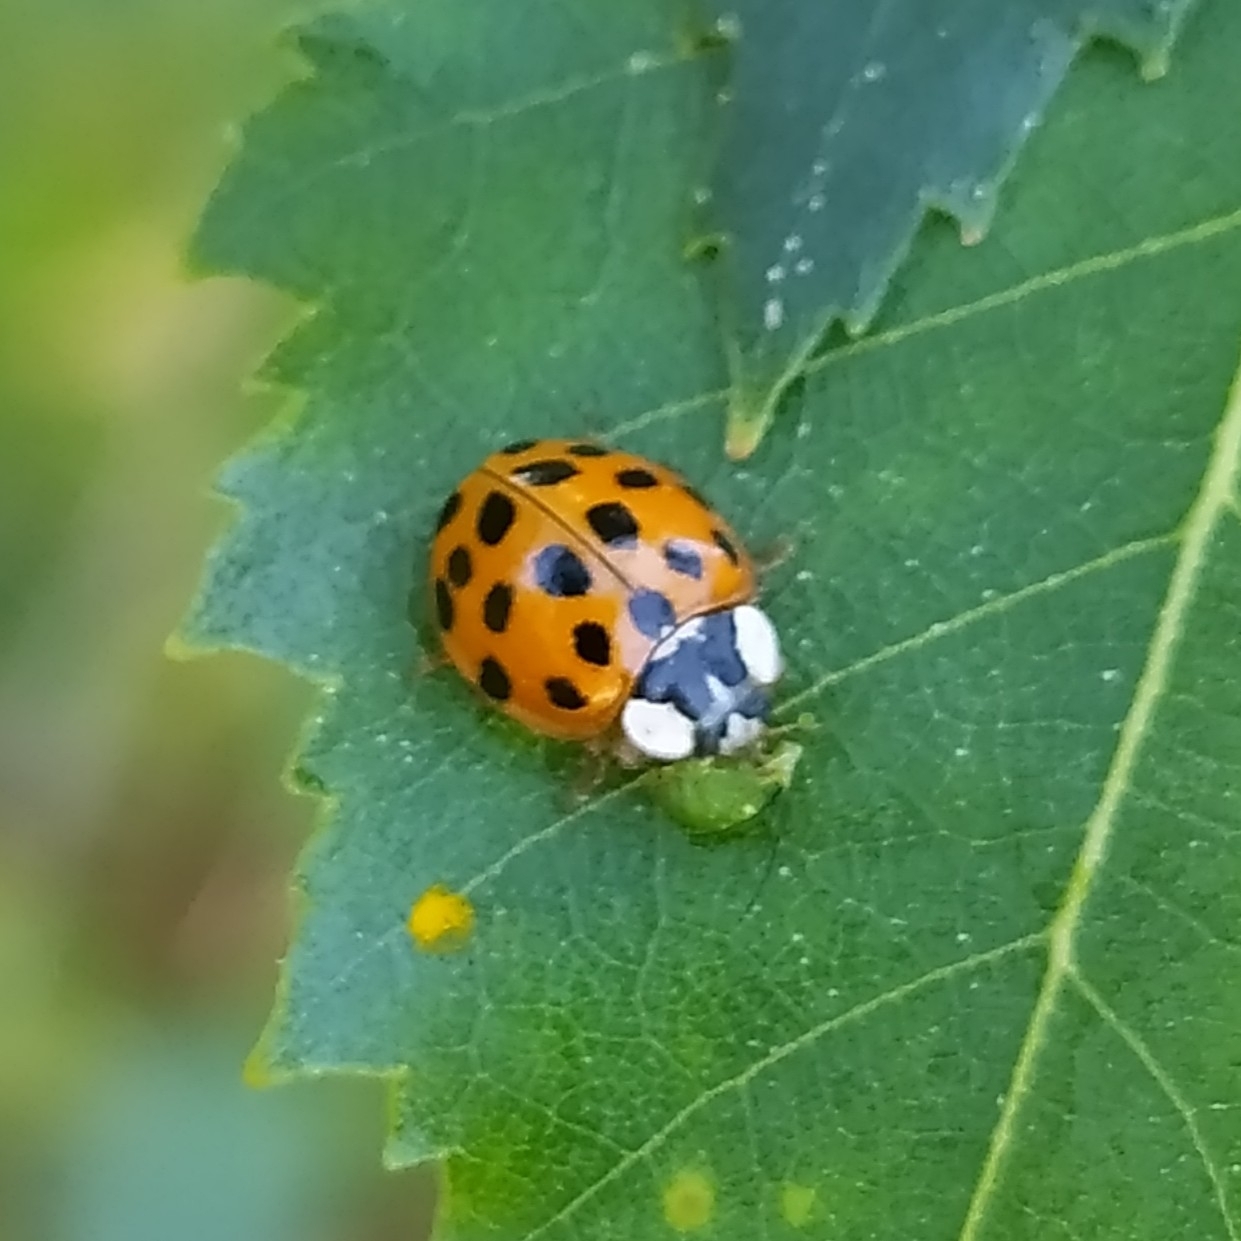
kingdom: Animalia
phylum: Arthropoda
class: Insecta
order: Coleoptera
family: Coccinellidae
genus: Harmonia
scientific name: Harmonia axyridis
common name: Harlequin ladybird
